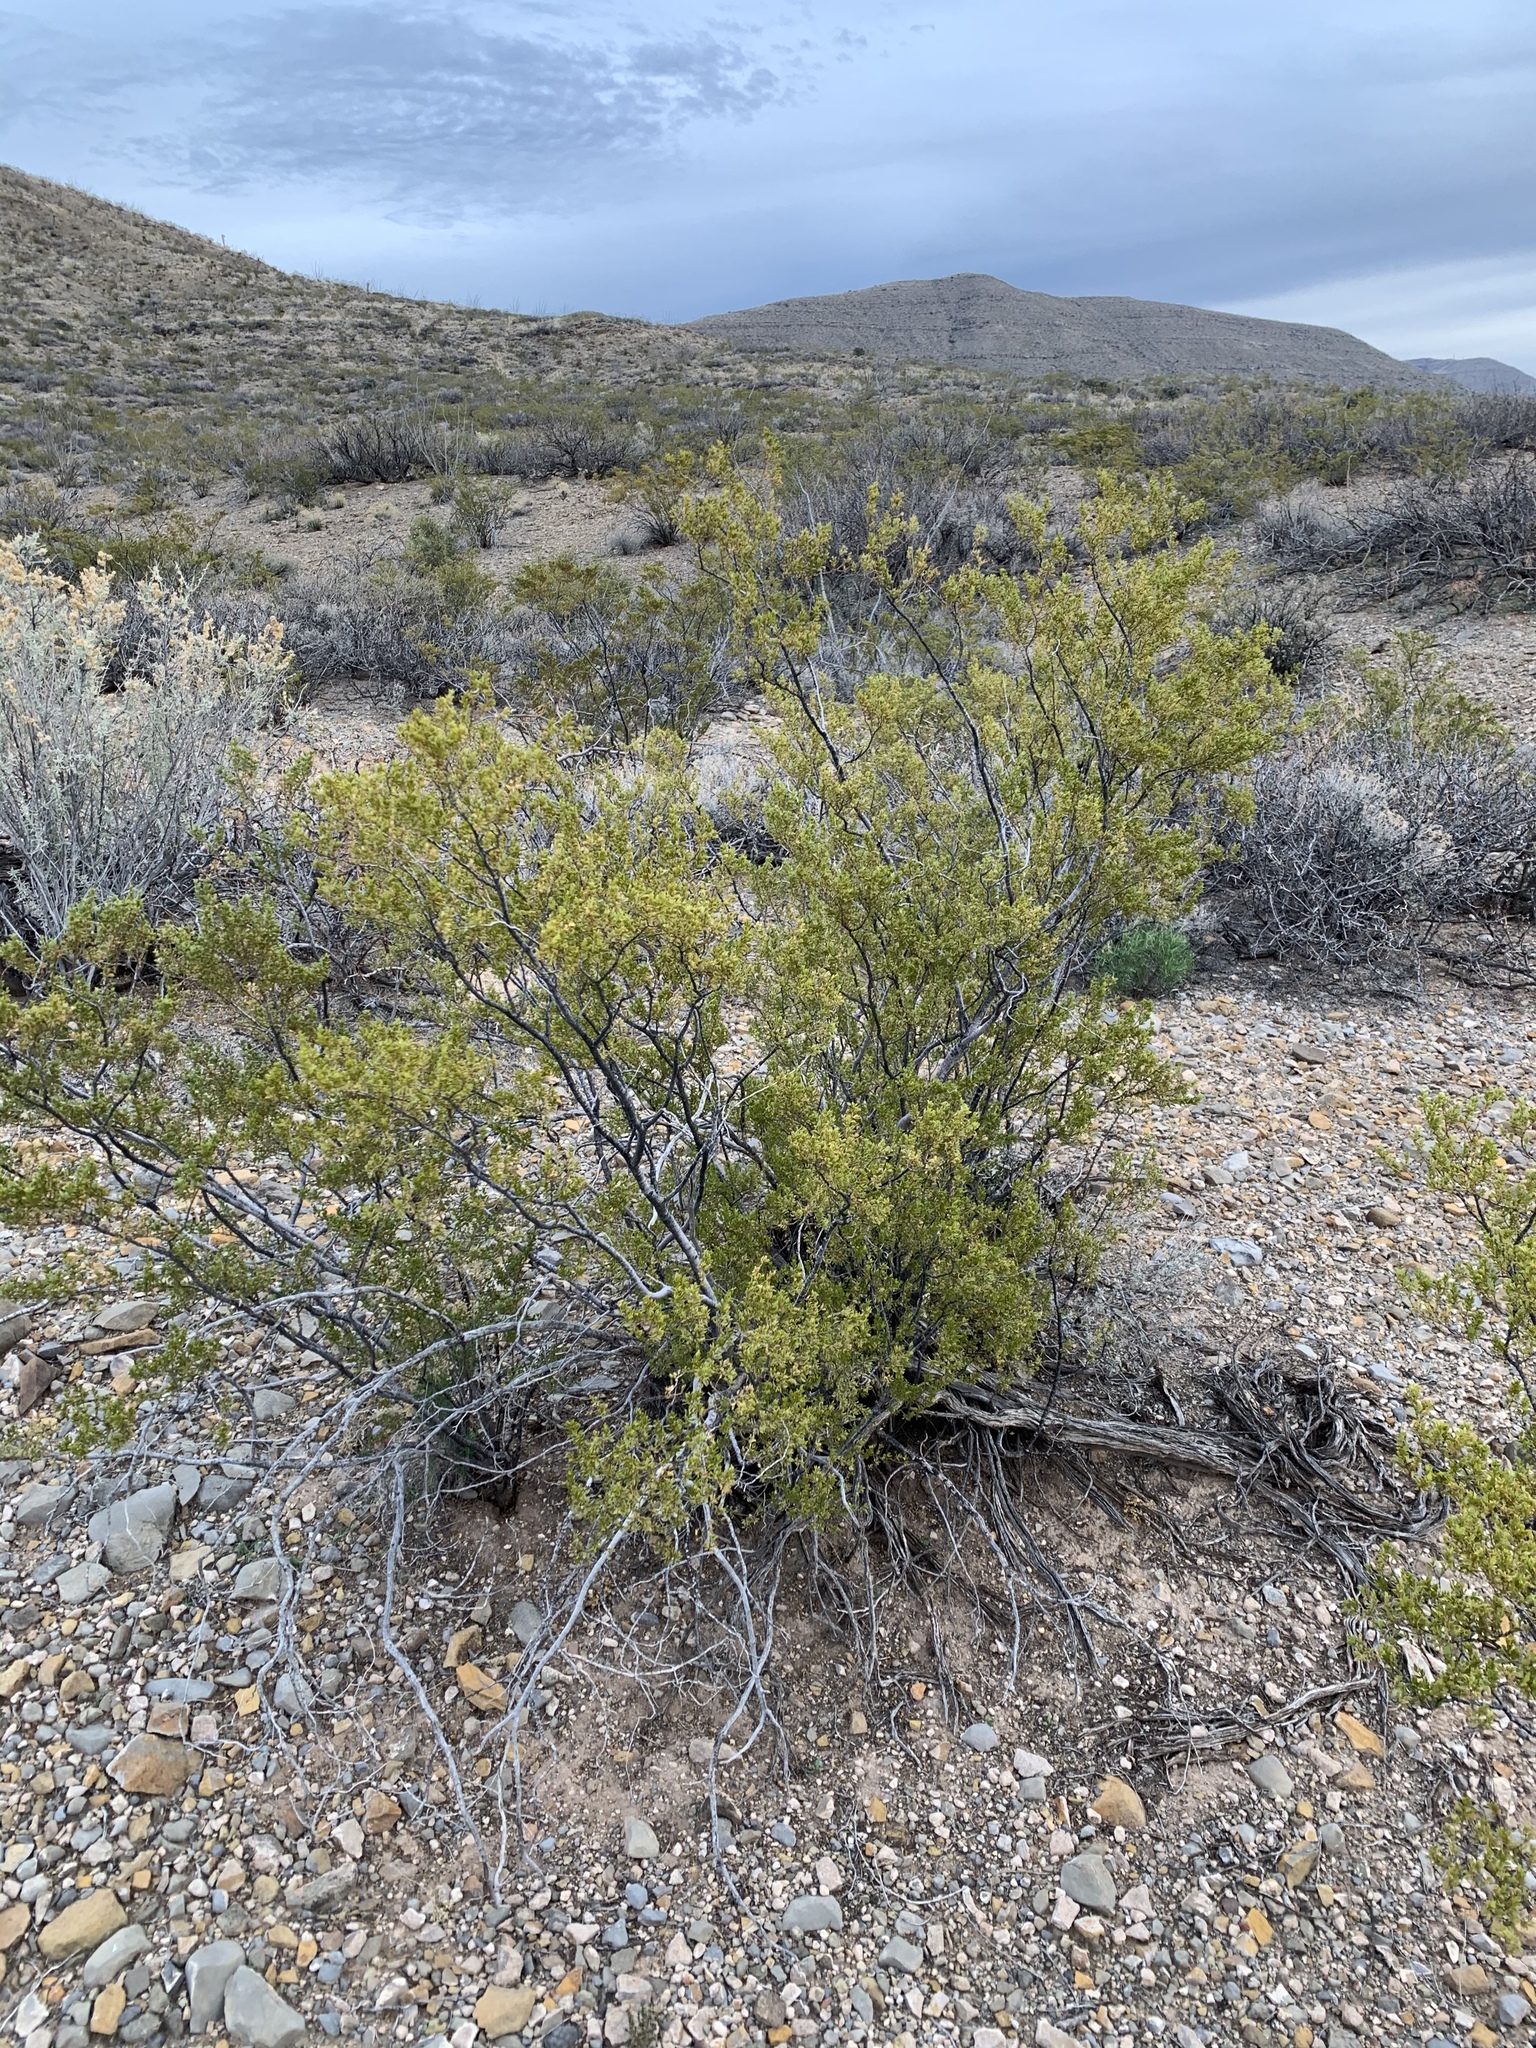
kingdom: Plantae
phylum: Tracheophyta
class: Magnoliopsida
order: Zygophyllales
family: Zygophyllaceae
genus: Larrea
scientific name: Larrea tridentata
